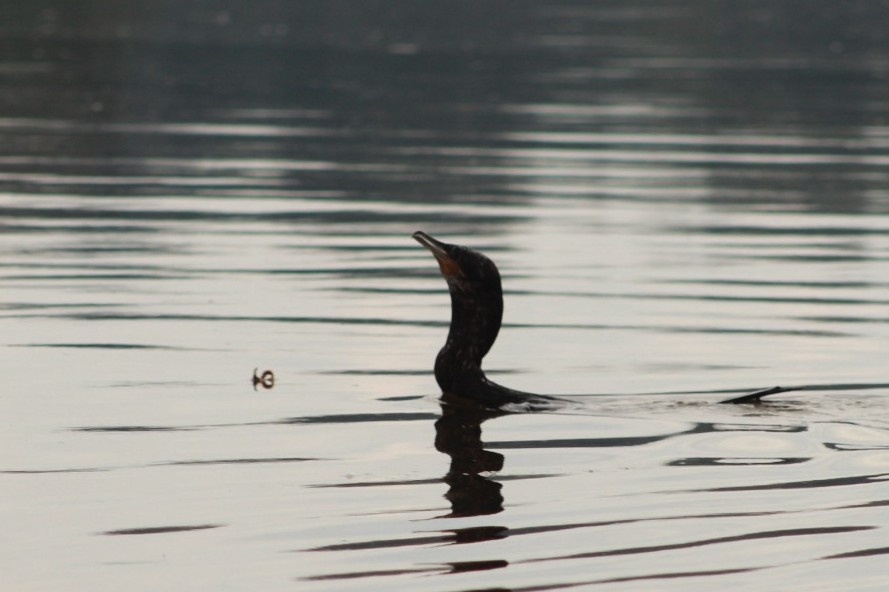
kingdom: Animalia
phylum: Chordata
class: Aves
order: Suliformes
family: Phalacrocoracidae
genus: Phalacrocorax
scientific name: Phalacrocorax brasilianus
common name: Neotropic cormorant
